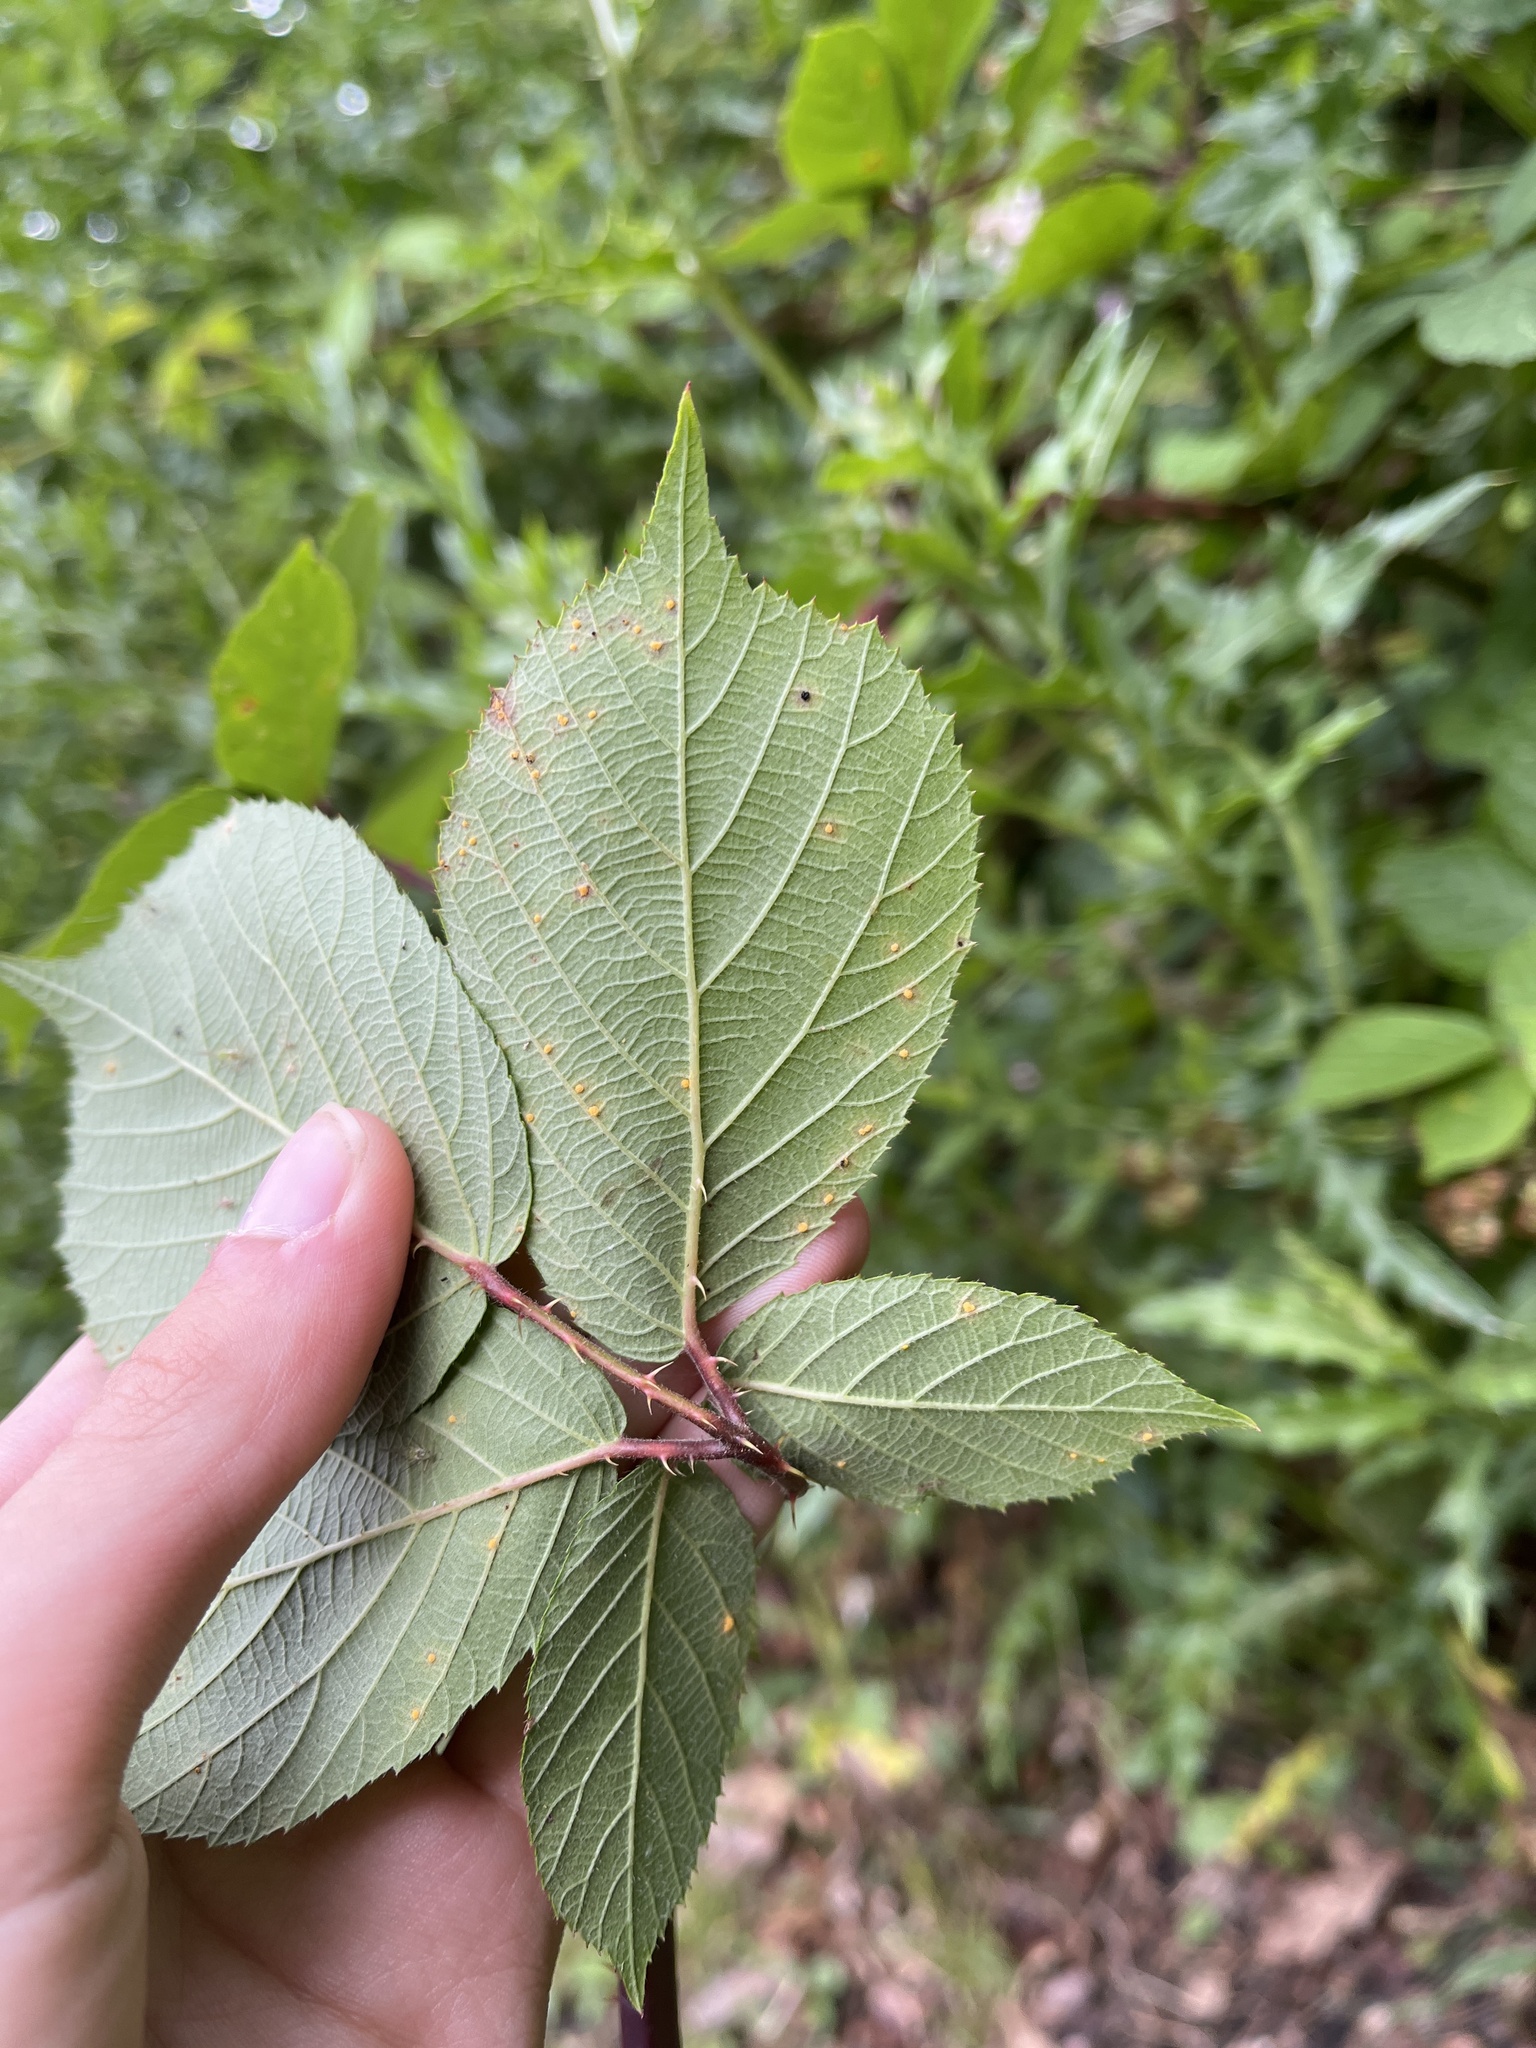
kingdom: Fungi
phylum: Basidiomycota
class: Pucciniomycetes
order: Pucciniales
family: Phragmidiaceae
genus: Phragmidium
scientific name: Phragmidium violaceum
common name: Violet bramble rust
